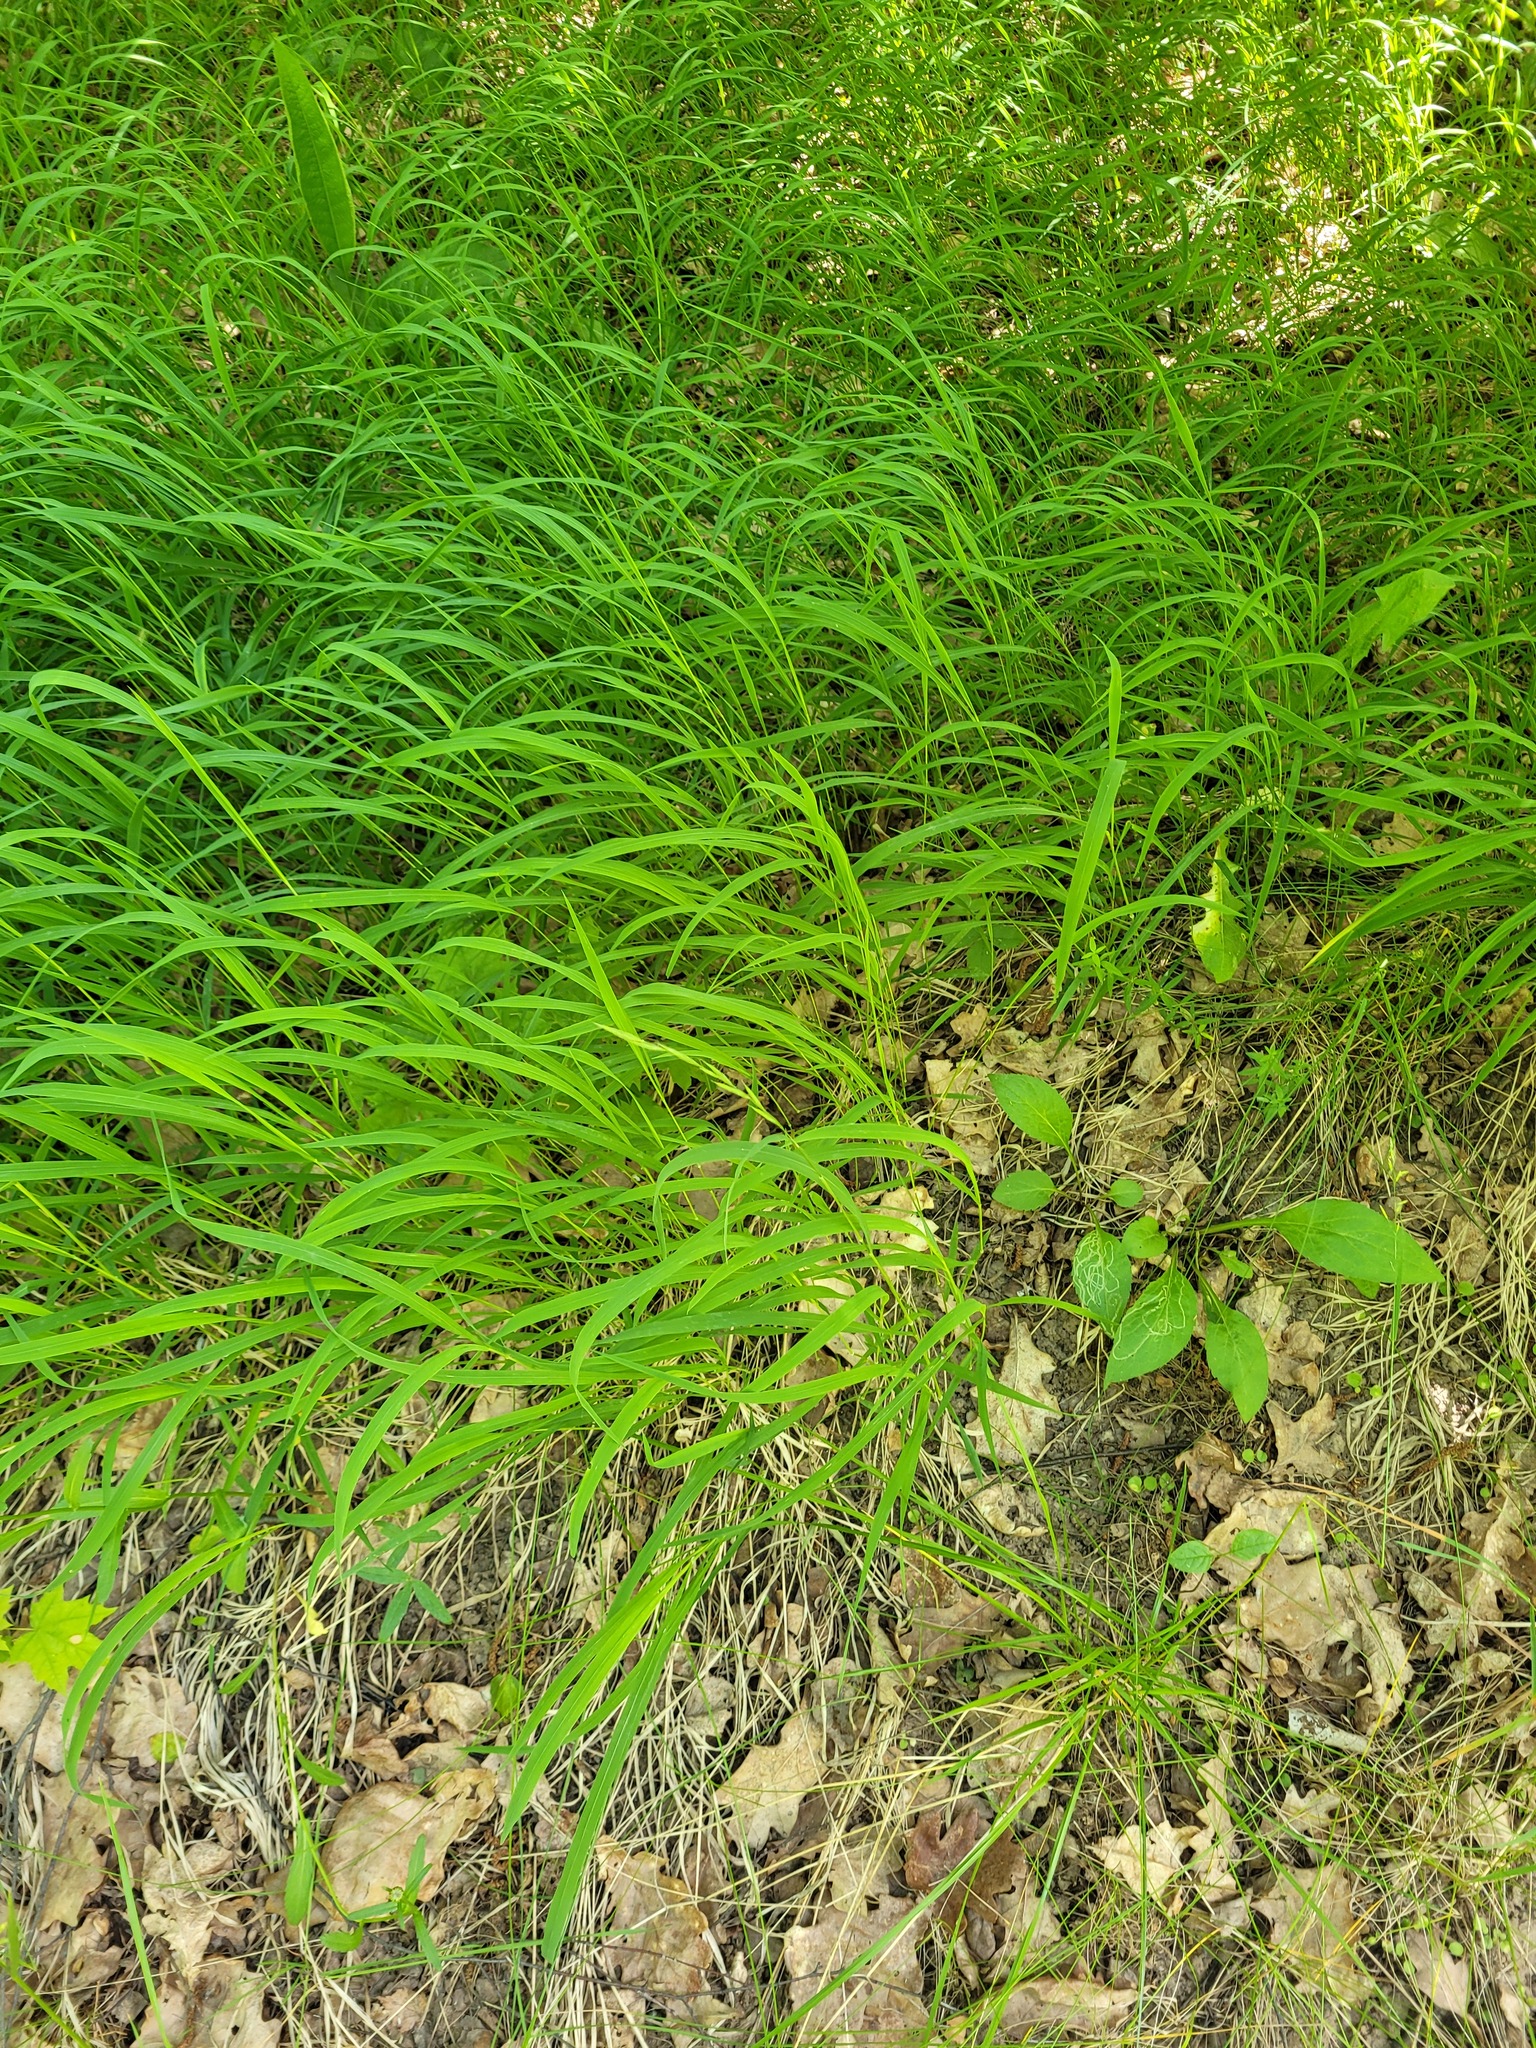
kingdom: Plantae
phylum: Tracheophyta
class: Liliopsida
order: Poales
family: Poaceae
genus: Brachypodium
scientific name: Brachypodium pinnatum
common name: Tor grass
